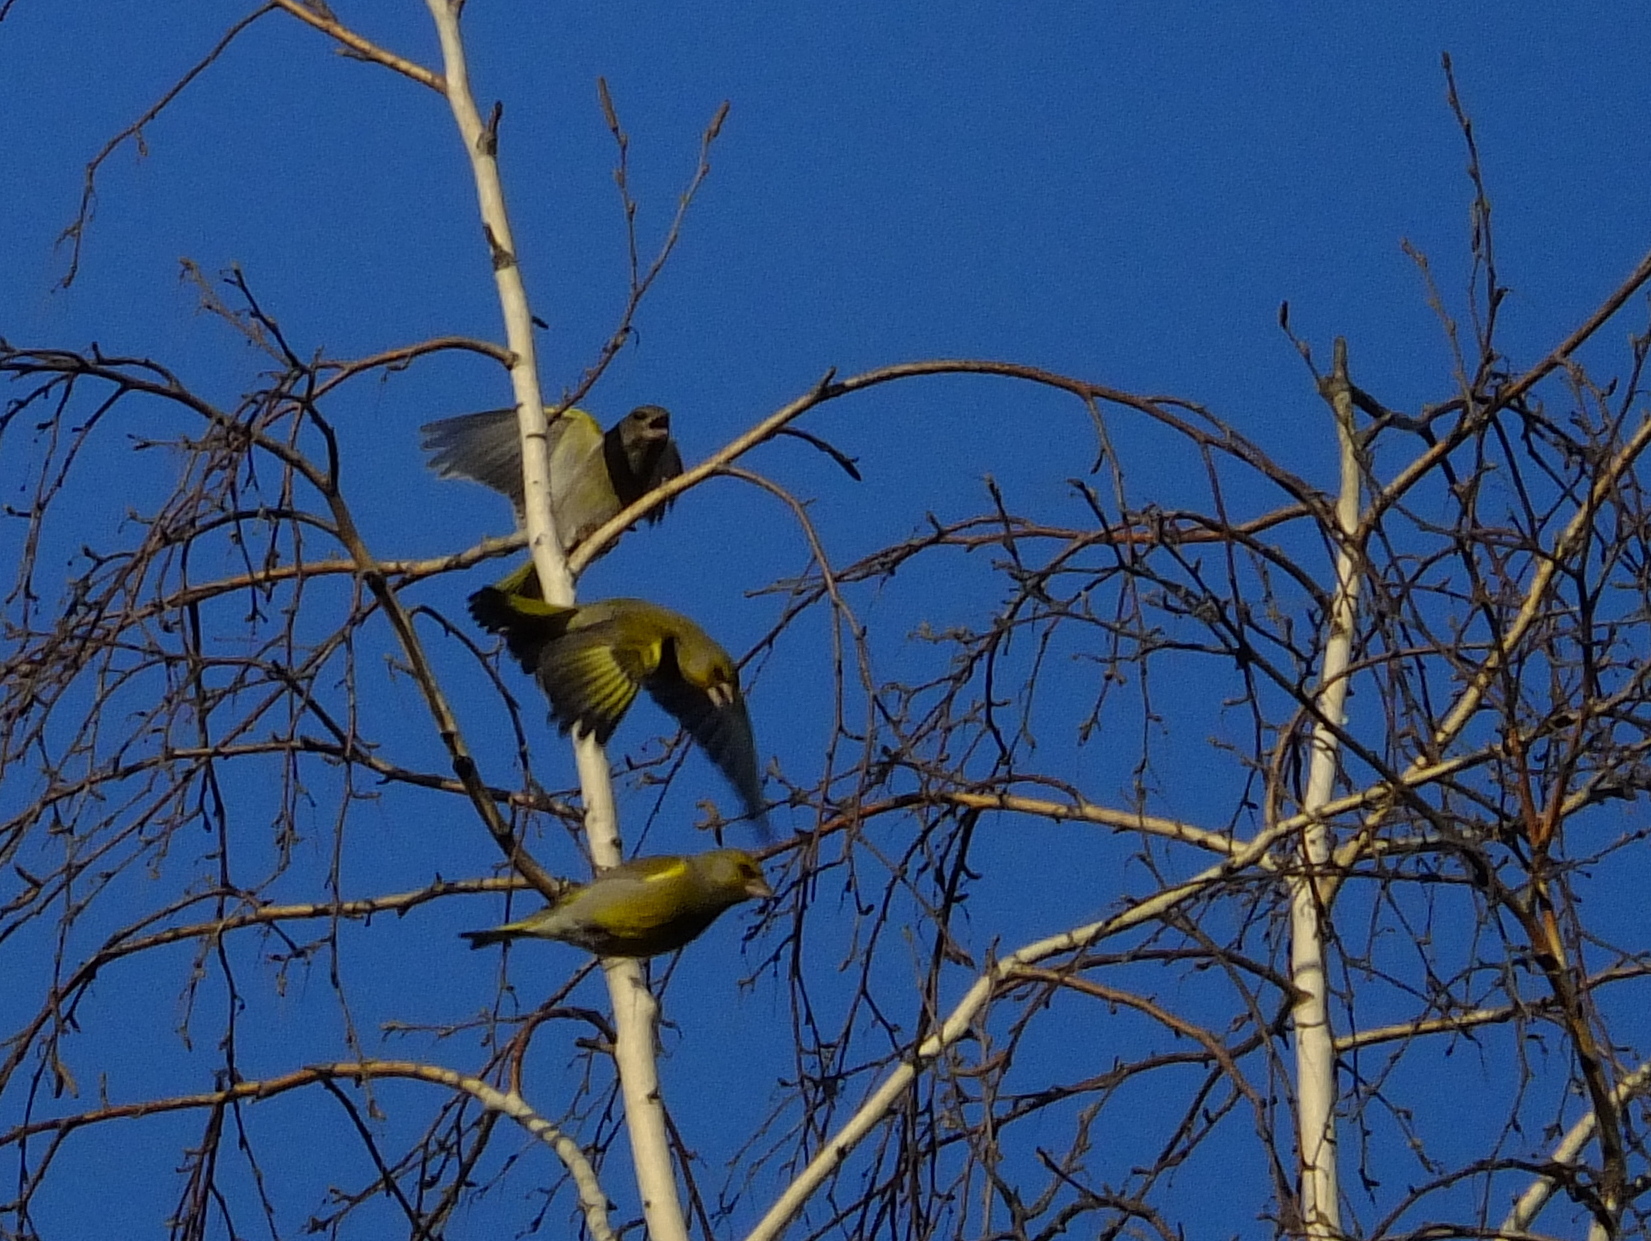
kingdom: Plantae
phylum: Tracheophyta
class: Liliopsida
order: Poales
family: Poaceae
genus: Chloris
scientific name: Chloris chloris
